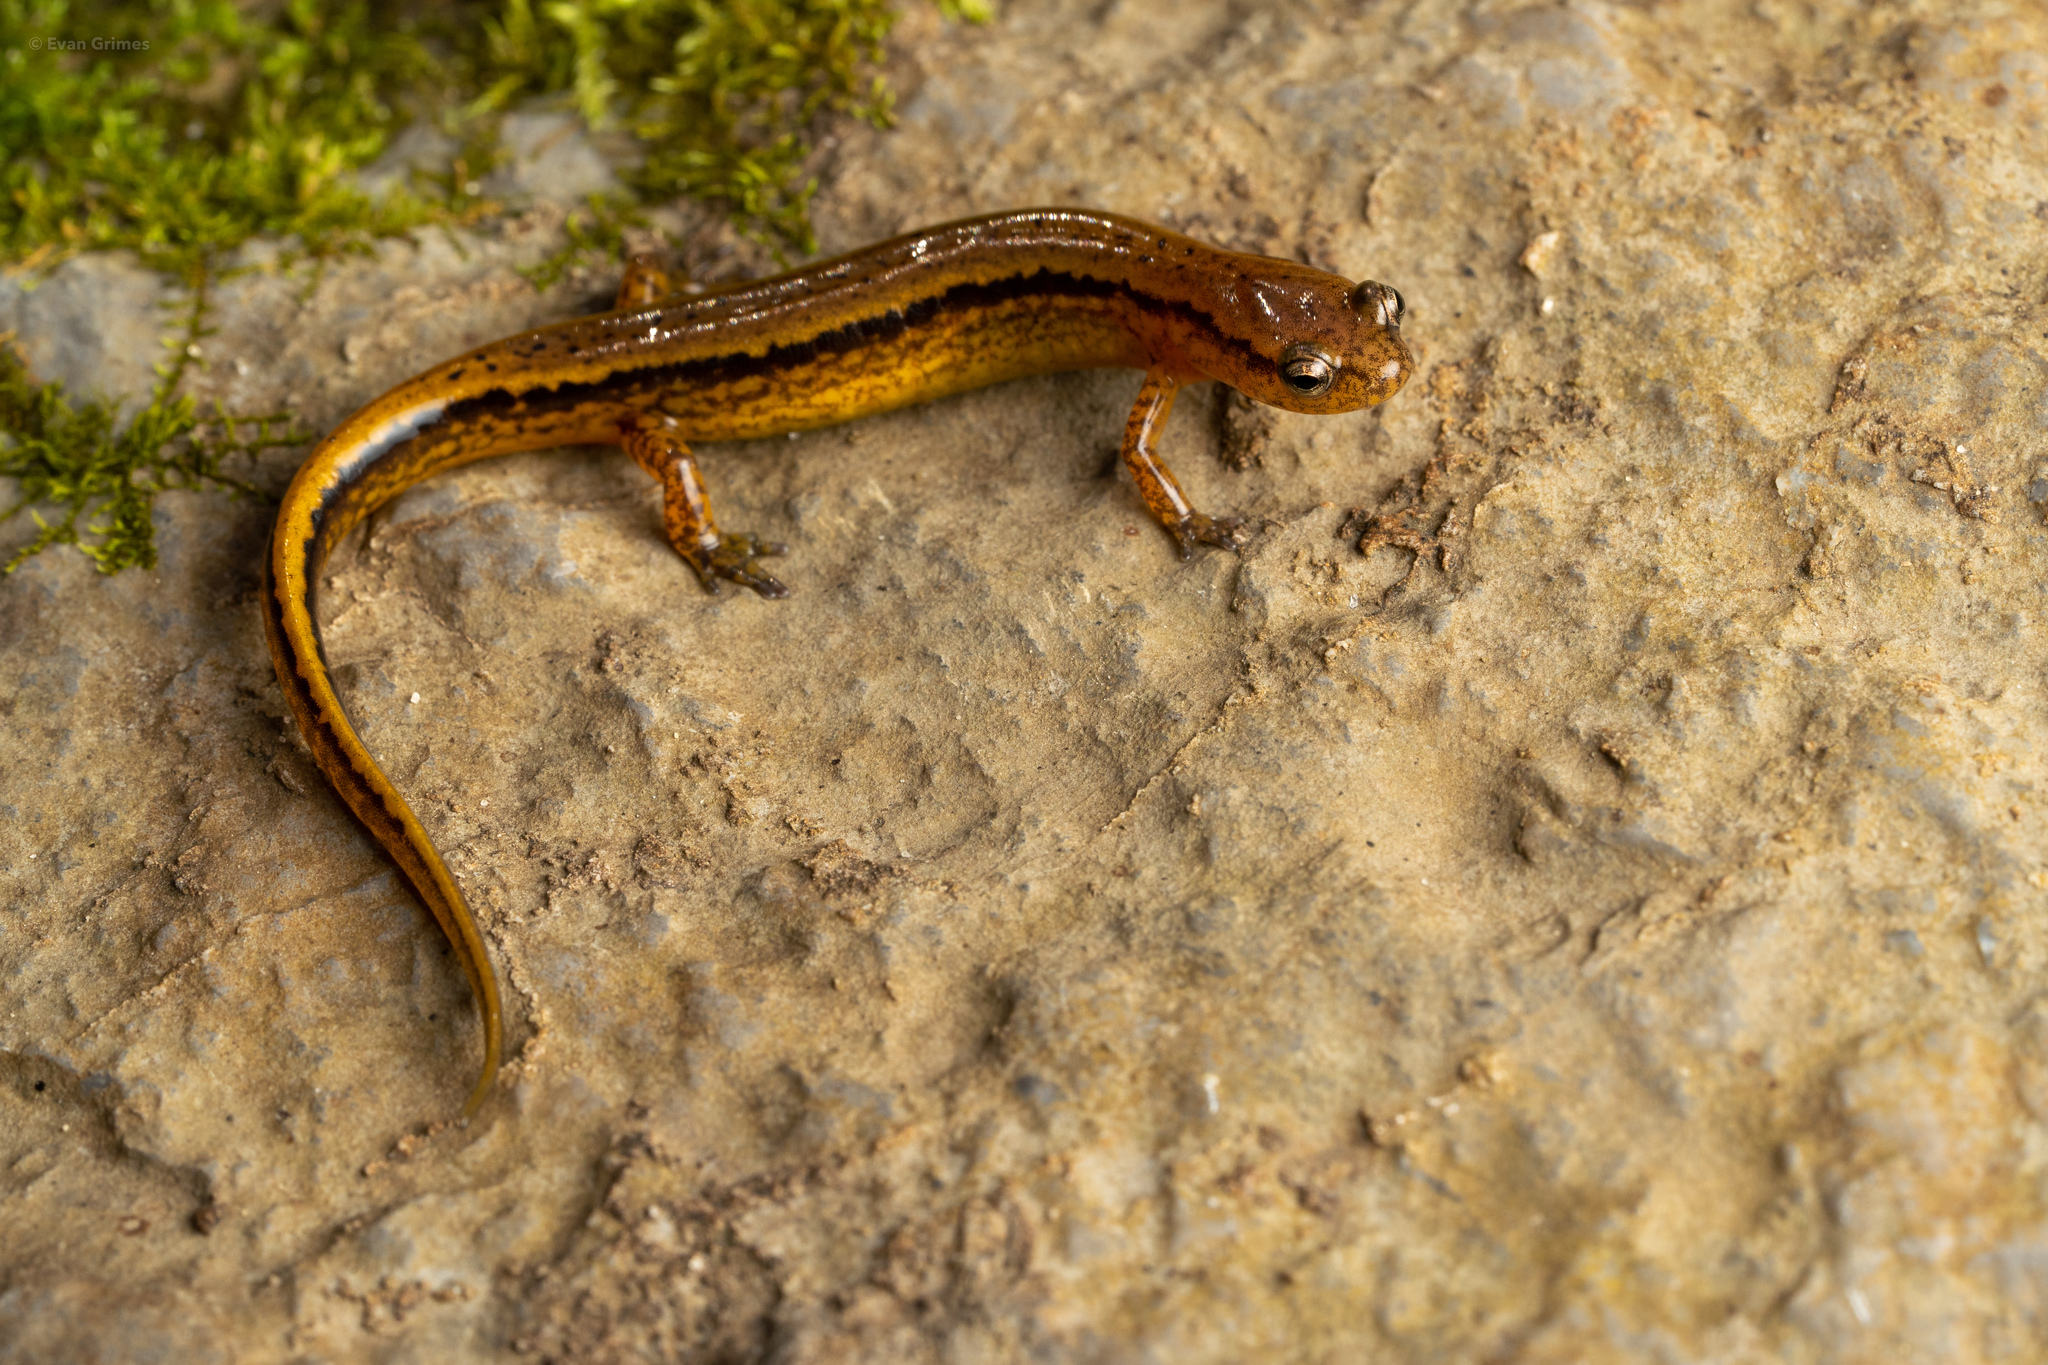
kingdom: Animalia
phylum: Chordata
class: Amphibia
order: Caudata
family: Plethodontidae
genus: Eurycea
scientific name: Eurycea cirrigera
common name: Southern two-lined salamander
